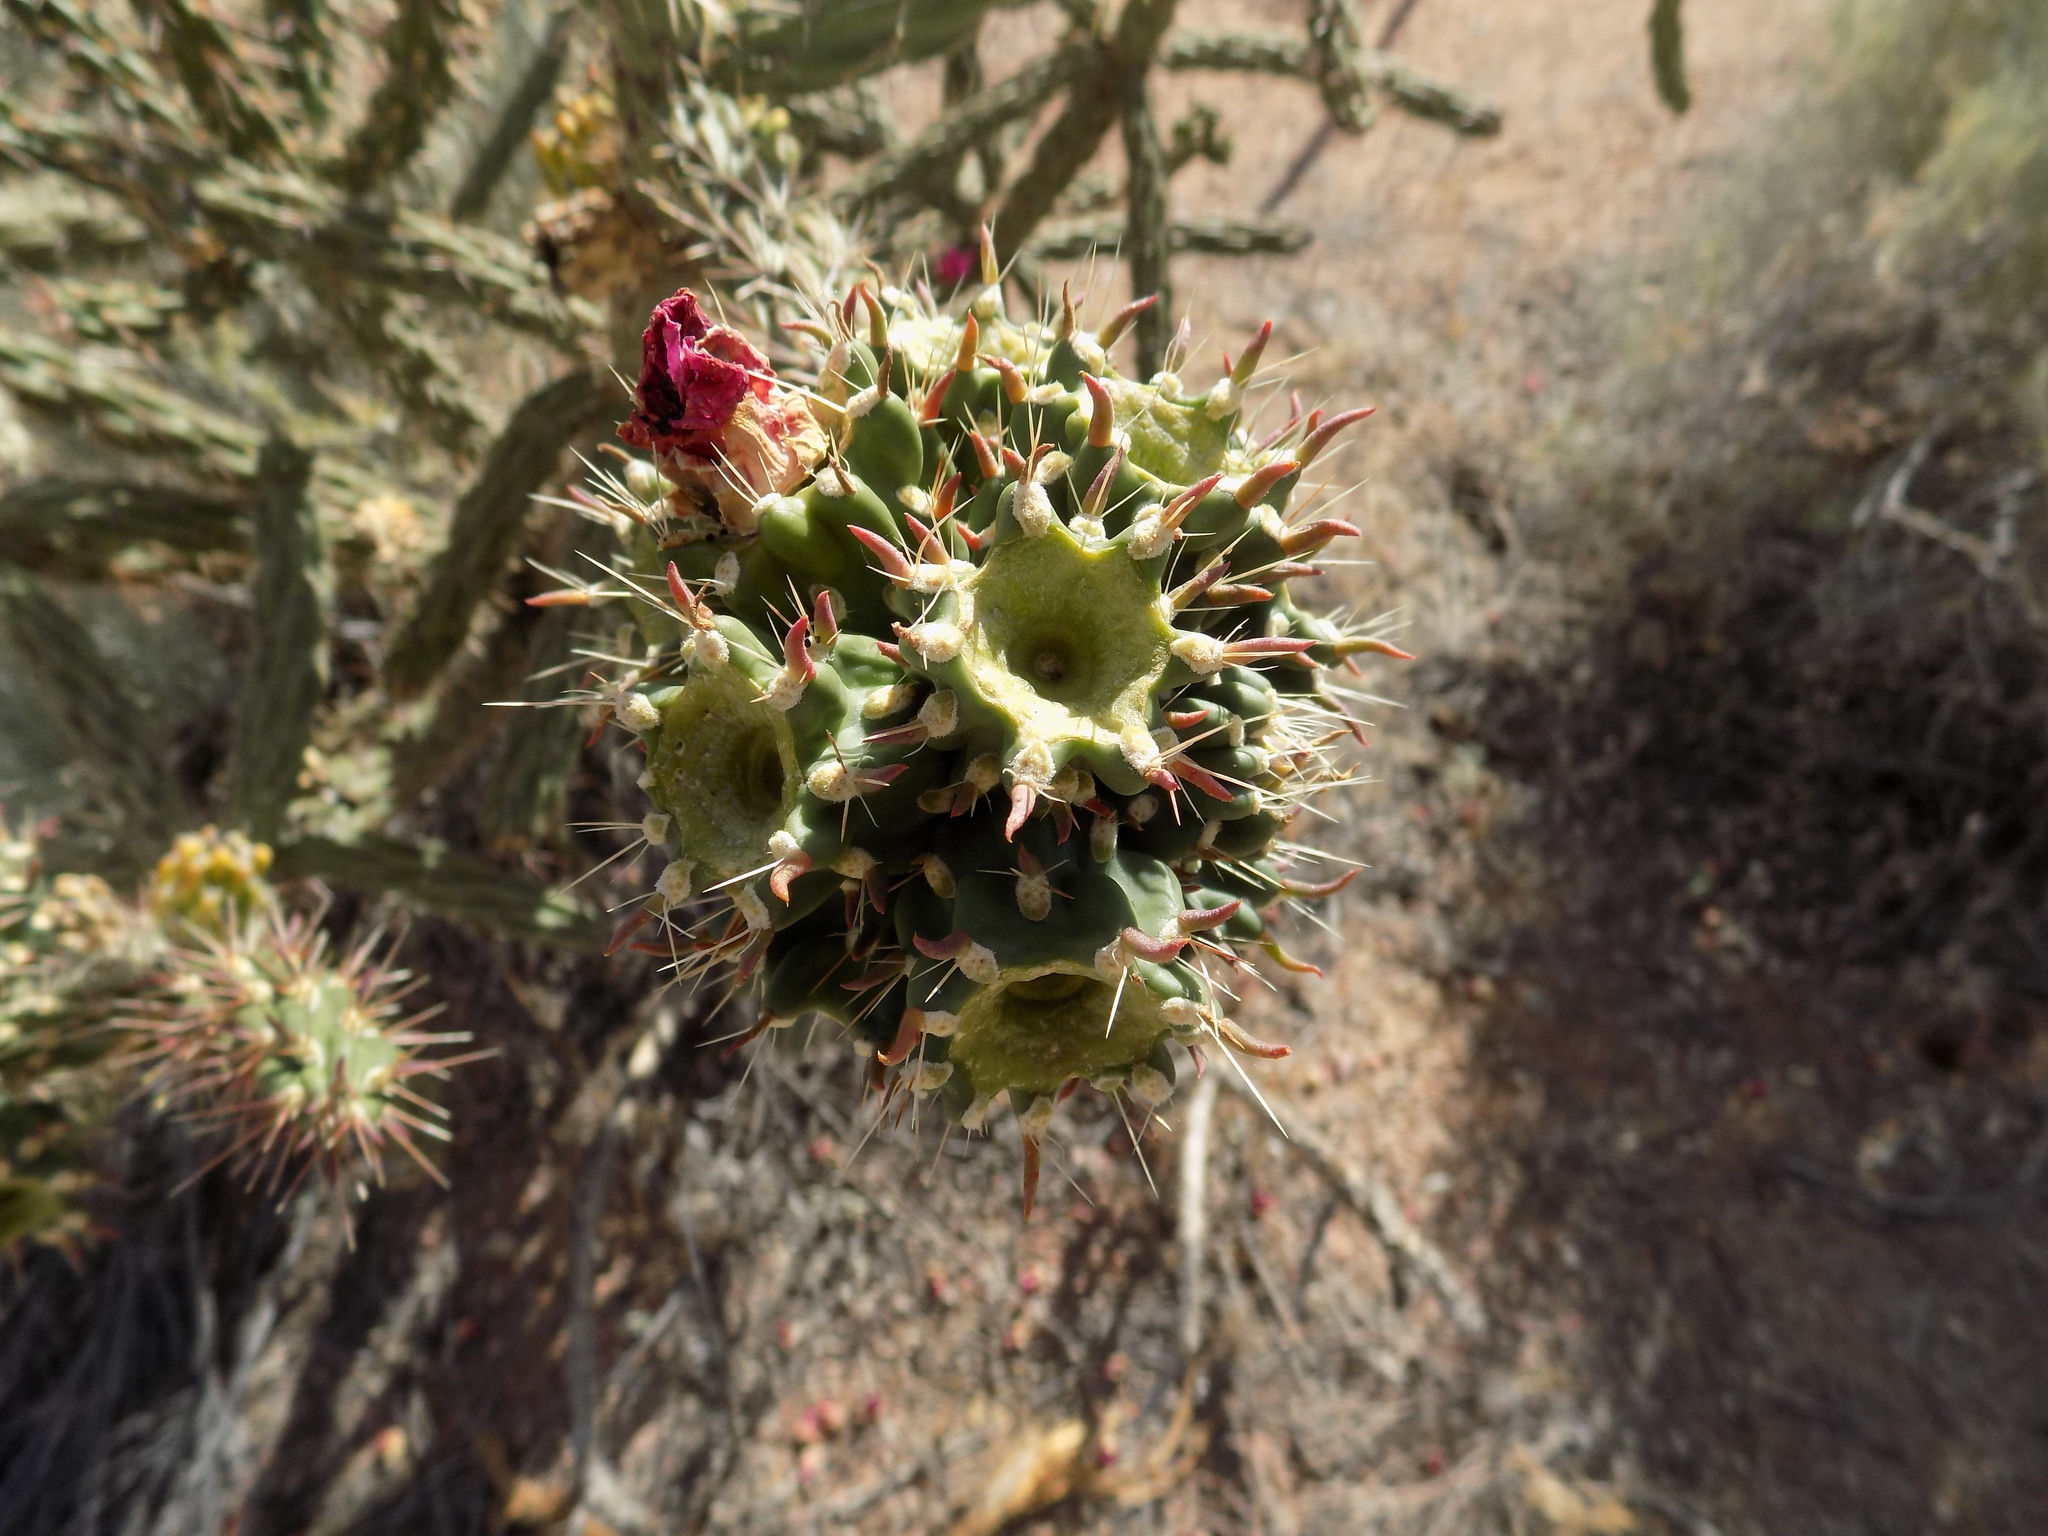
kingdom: Plantae
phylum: Tracheophyta
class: Magnoliopsida
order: Caryophyllales
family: Cactaceae
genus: Cylindropuntia
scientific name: Cylindropuntia imbricata
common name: Candelabrum cactus
